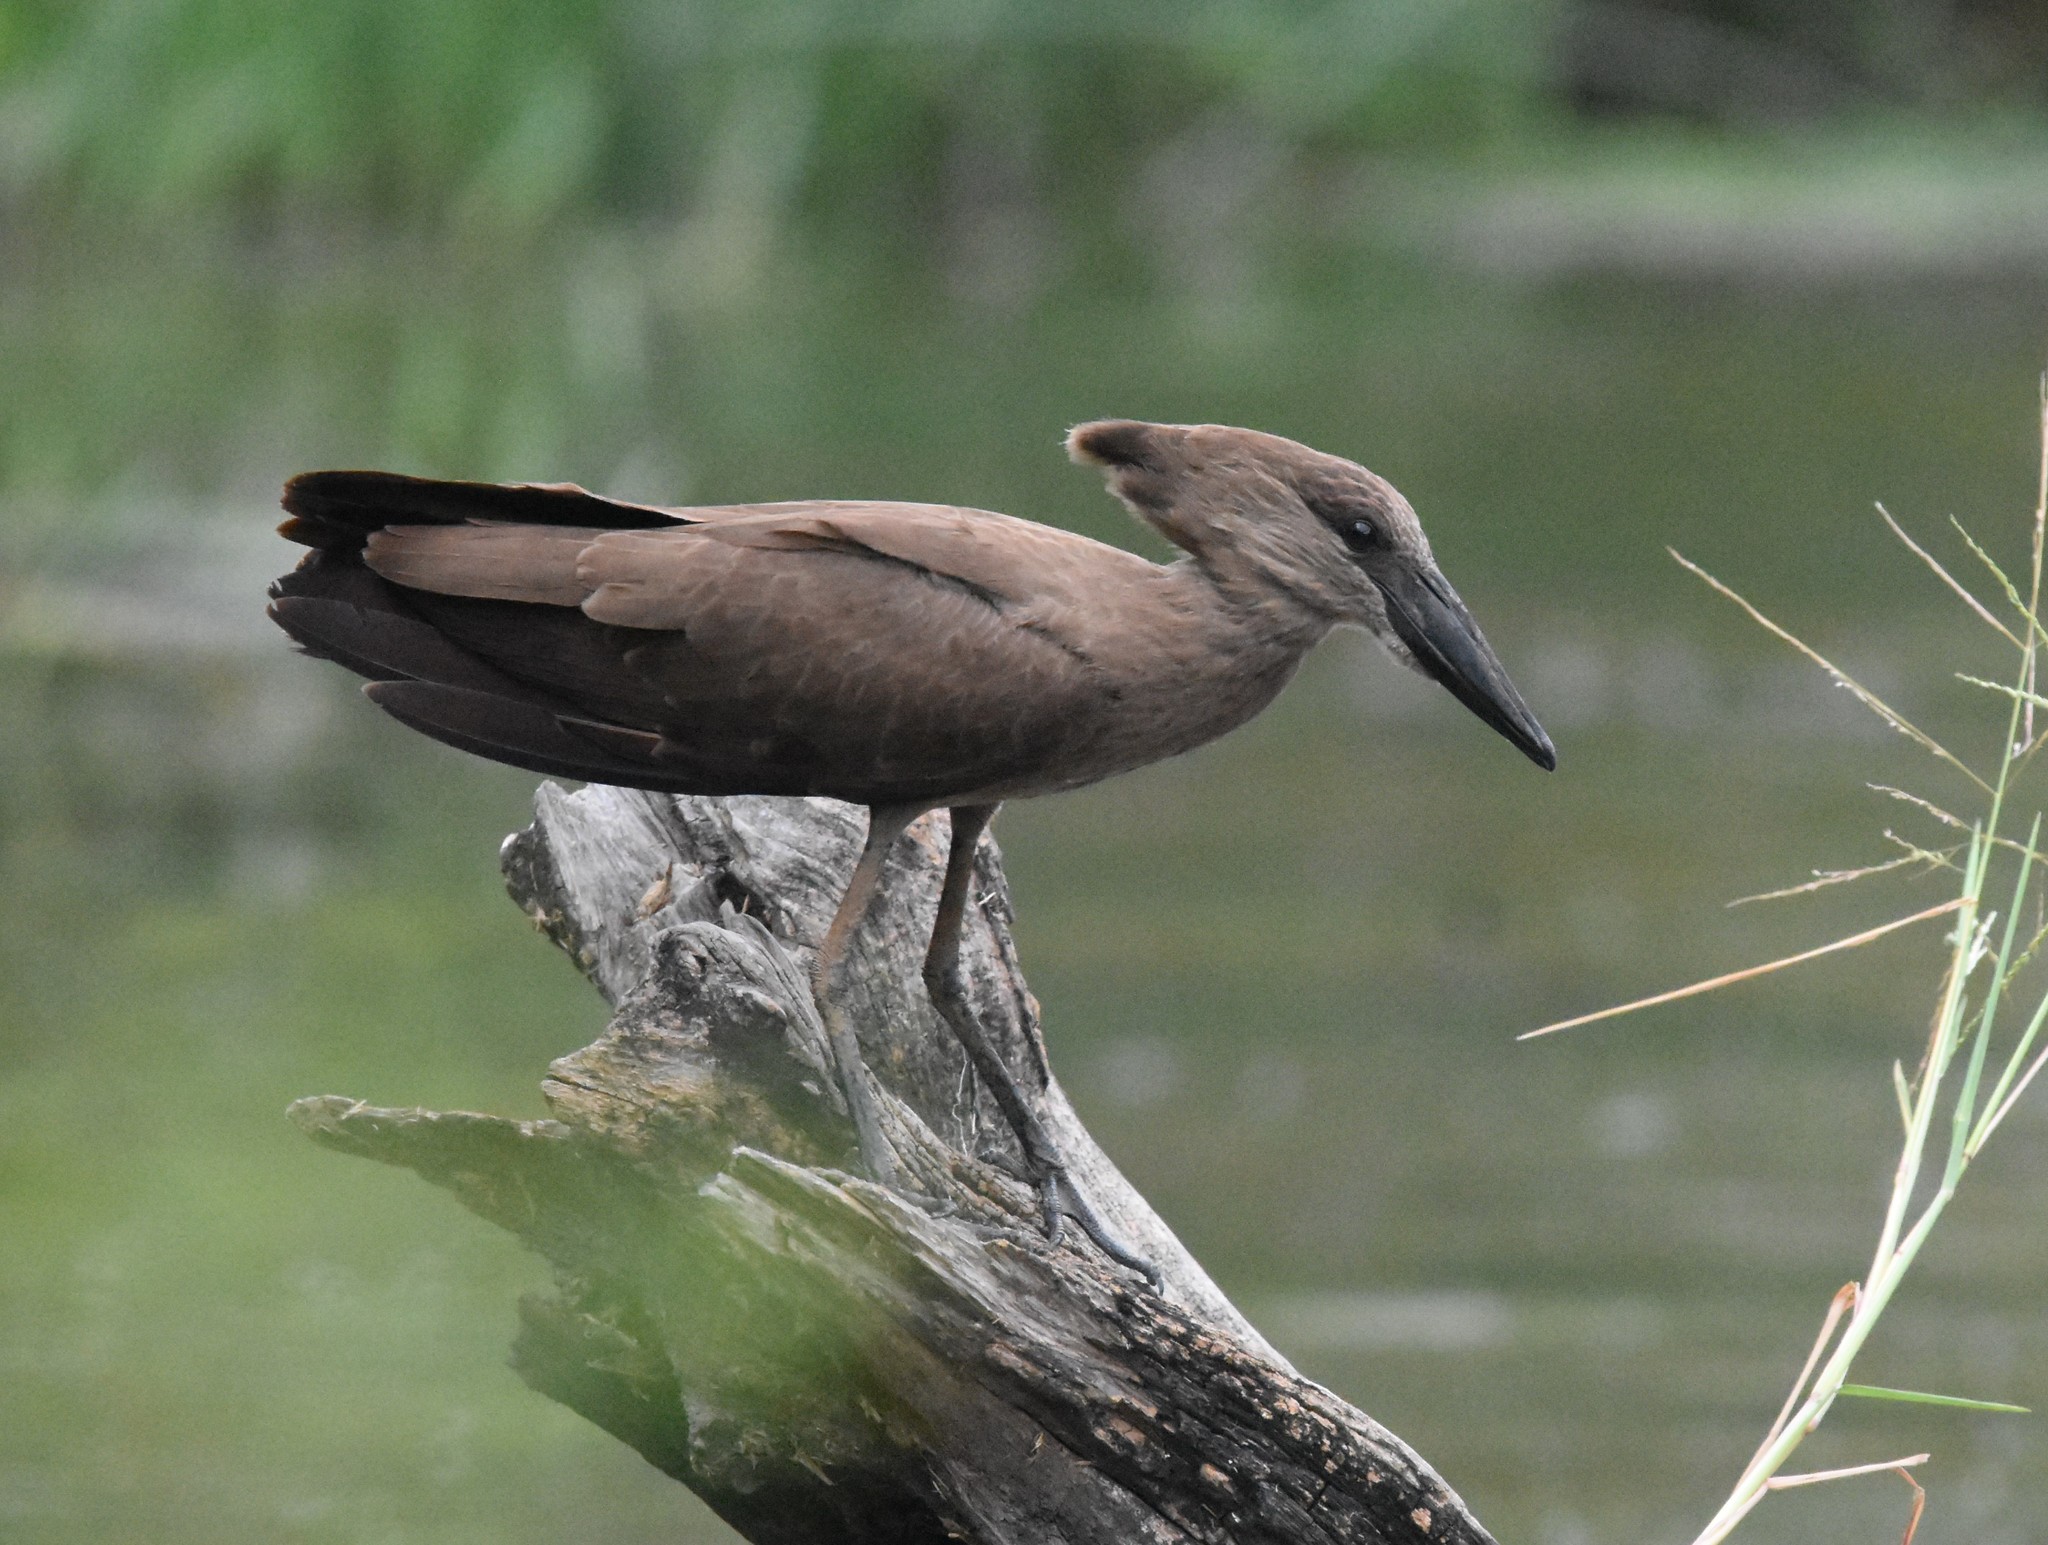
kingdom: Animalia
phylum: Chordata
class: Aves
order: Pelecaniformes
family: Scopidae
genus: Scopus
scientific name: Scopus umbretta
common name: Hamerkop
